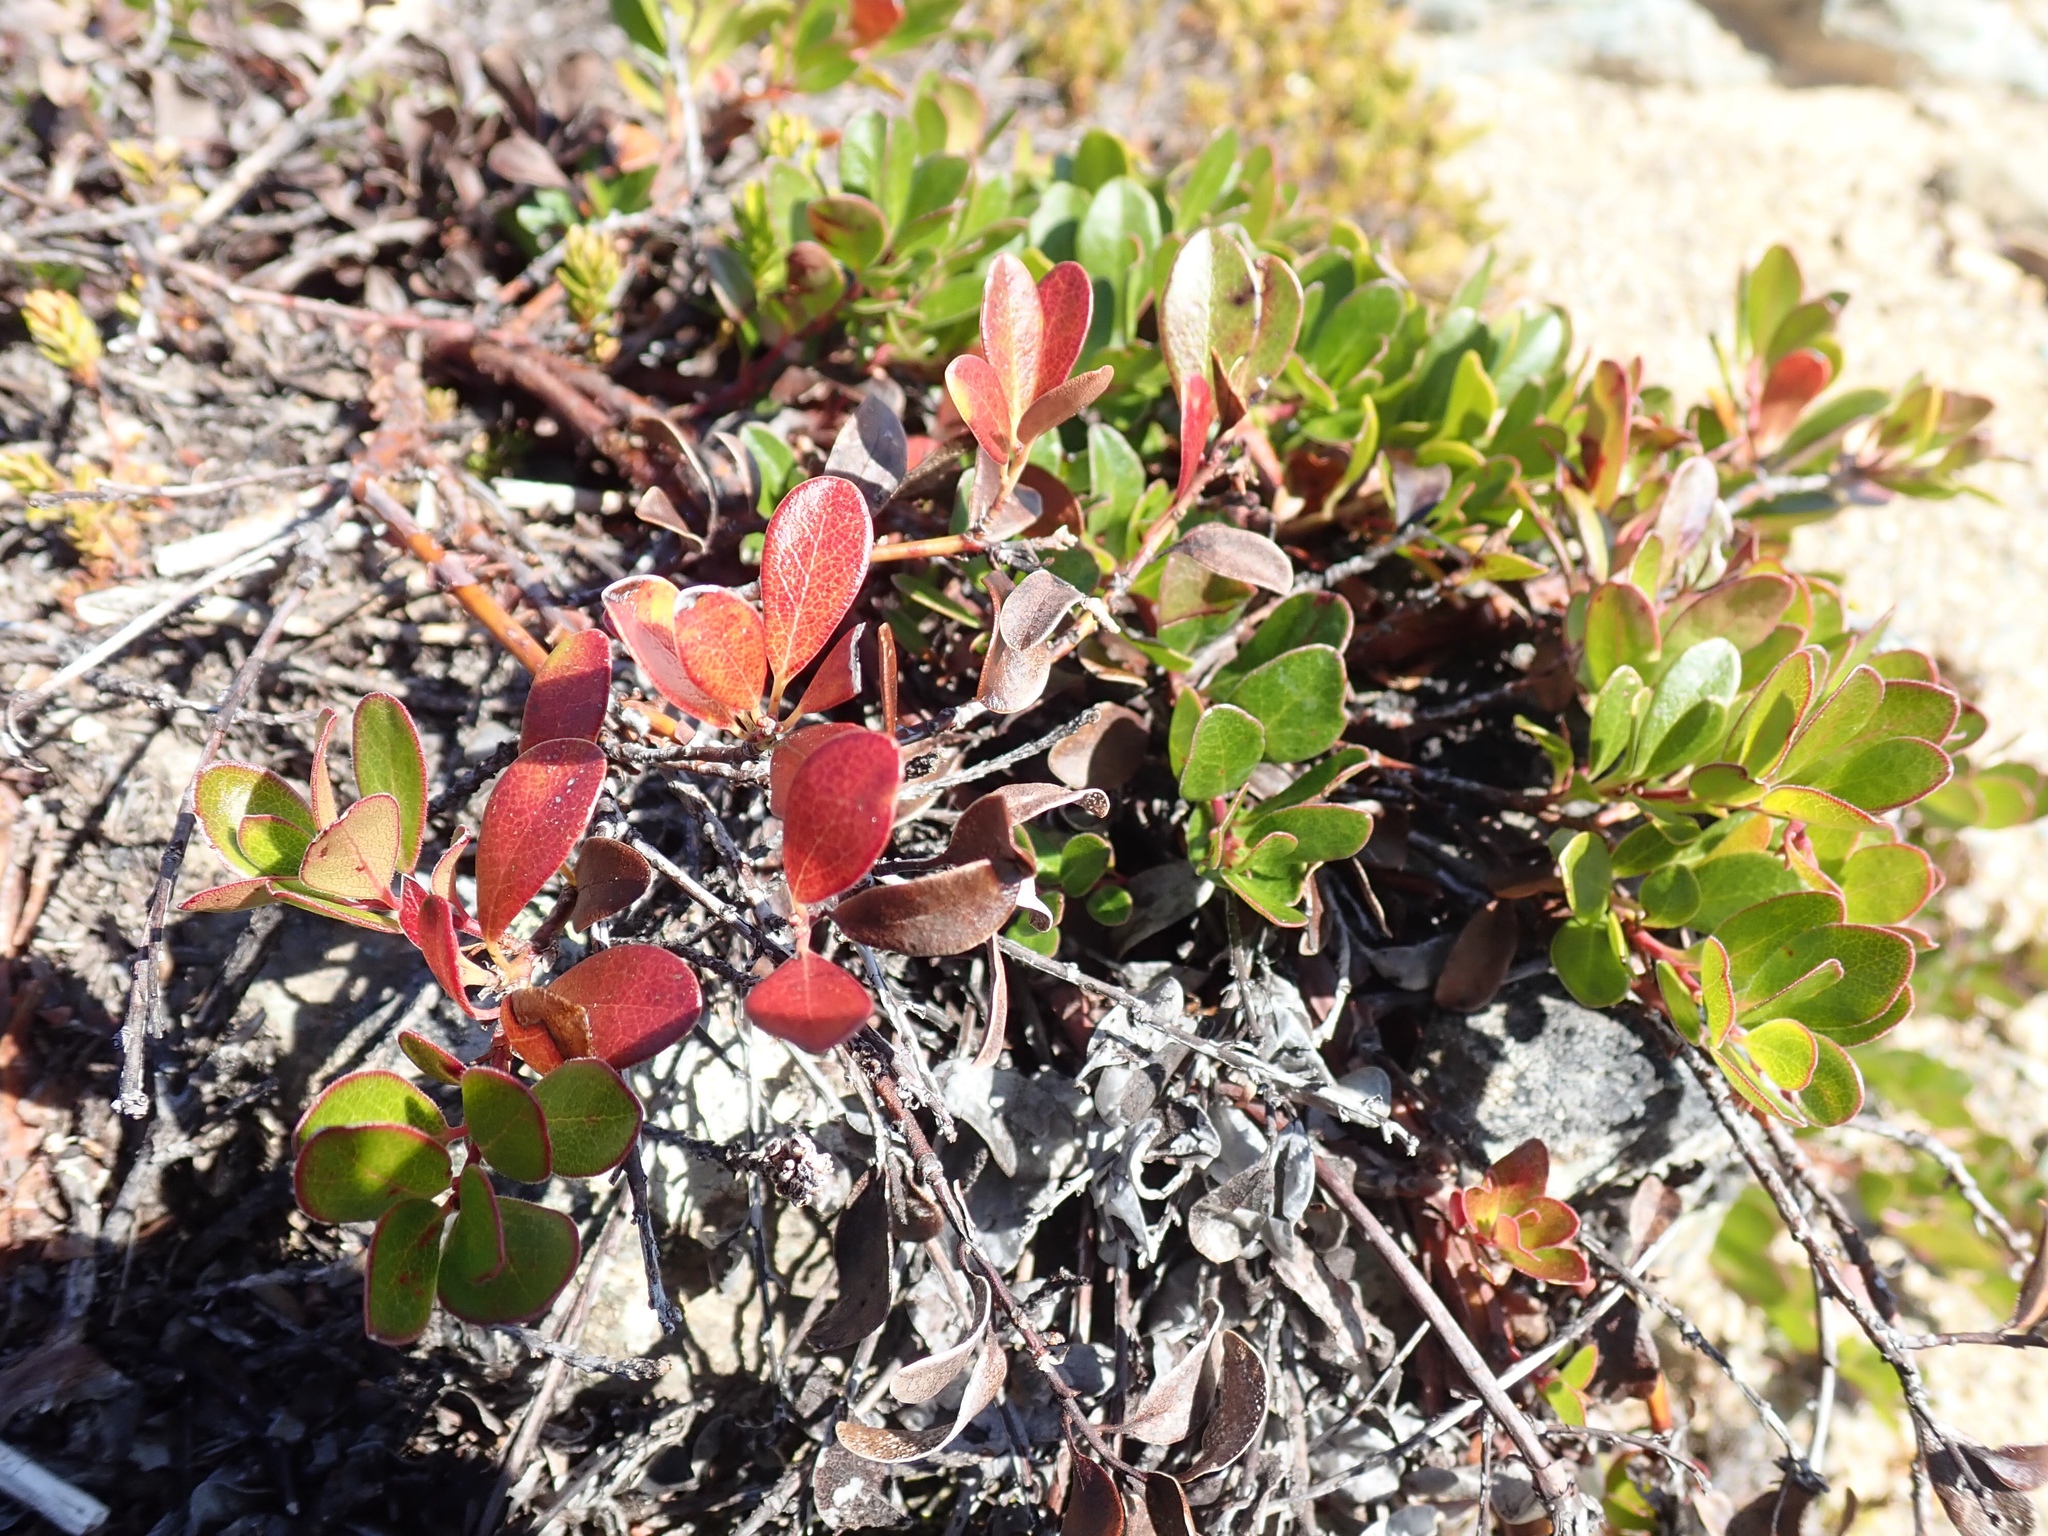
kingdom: Plantae
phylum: Tracheophyta
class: Magnoliopsida
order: Ericales
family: Ericaceae
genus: Arctostaphylos
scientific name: Arctostaphylos uva-ursi
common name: Bearberry
